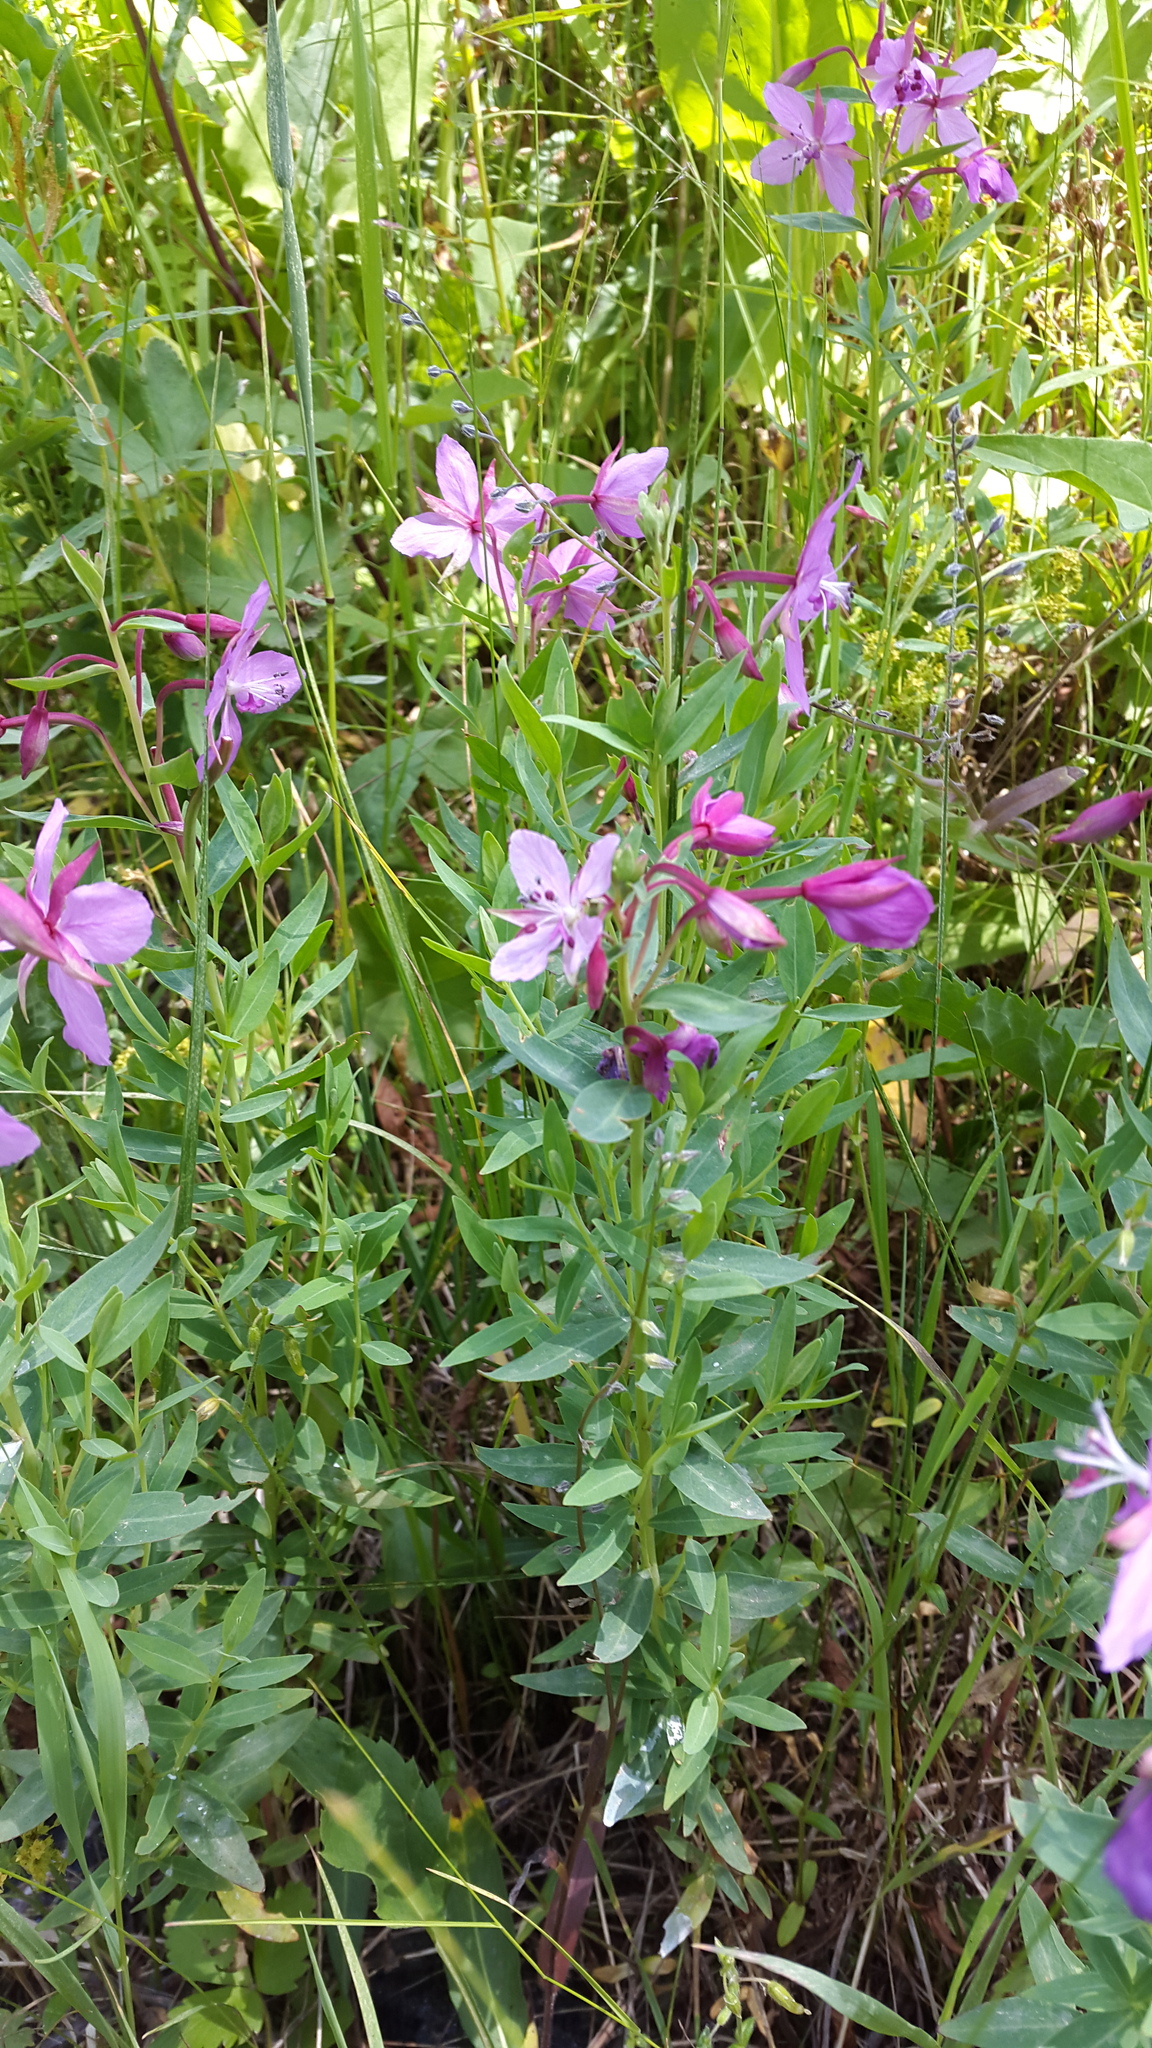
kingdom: Plantae
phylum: Tracheophyta
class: Magnoliopsida
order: Myrtales
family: Onagraceae
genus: Chamaenerion
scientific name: Chamaenerion latifolium
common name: Dwarf fireweed
